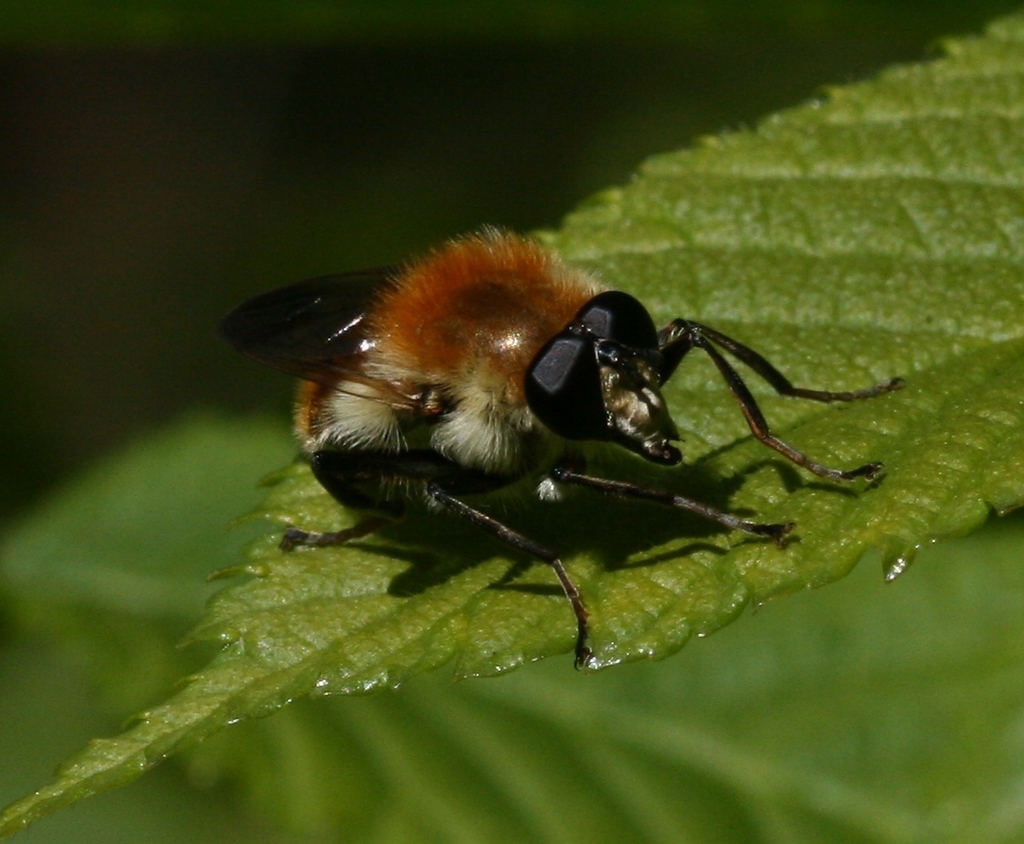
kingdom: Animalia
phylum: Arthropoda
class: Insecta
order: Diptera
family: Syrphidae
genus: Criorhina
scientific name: Criorhina floccosa
